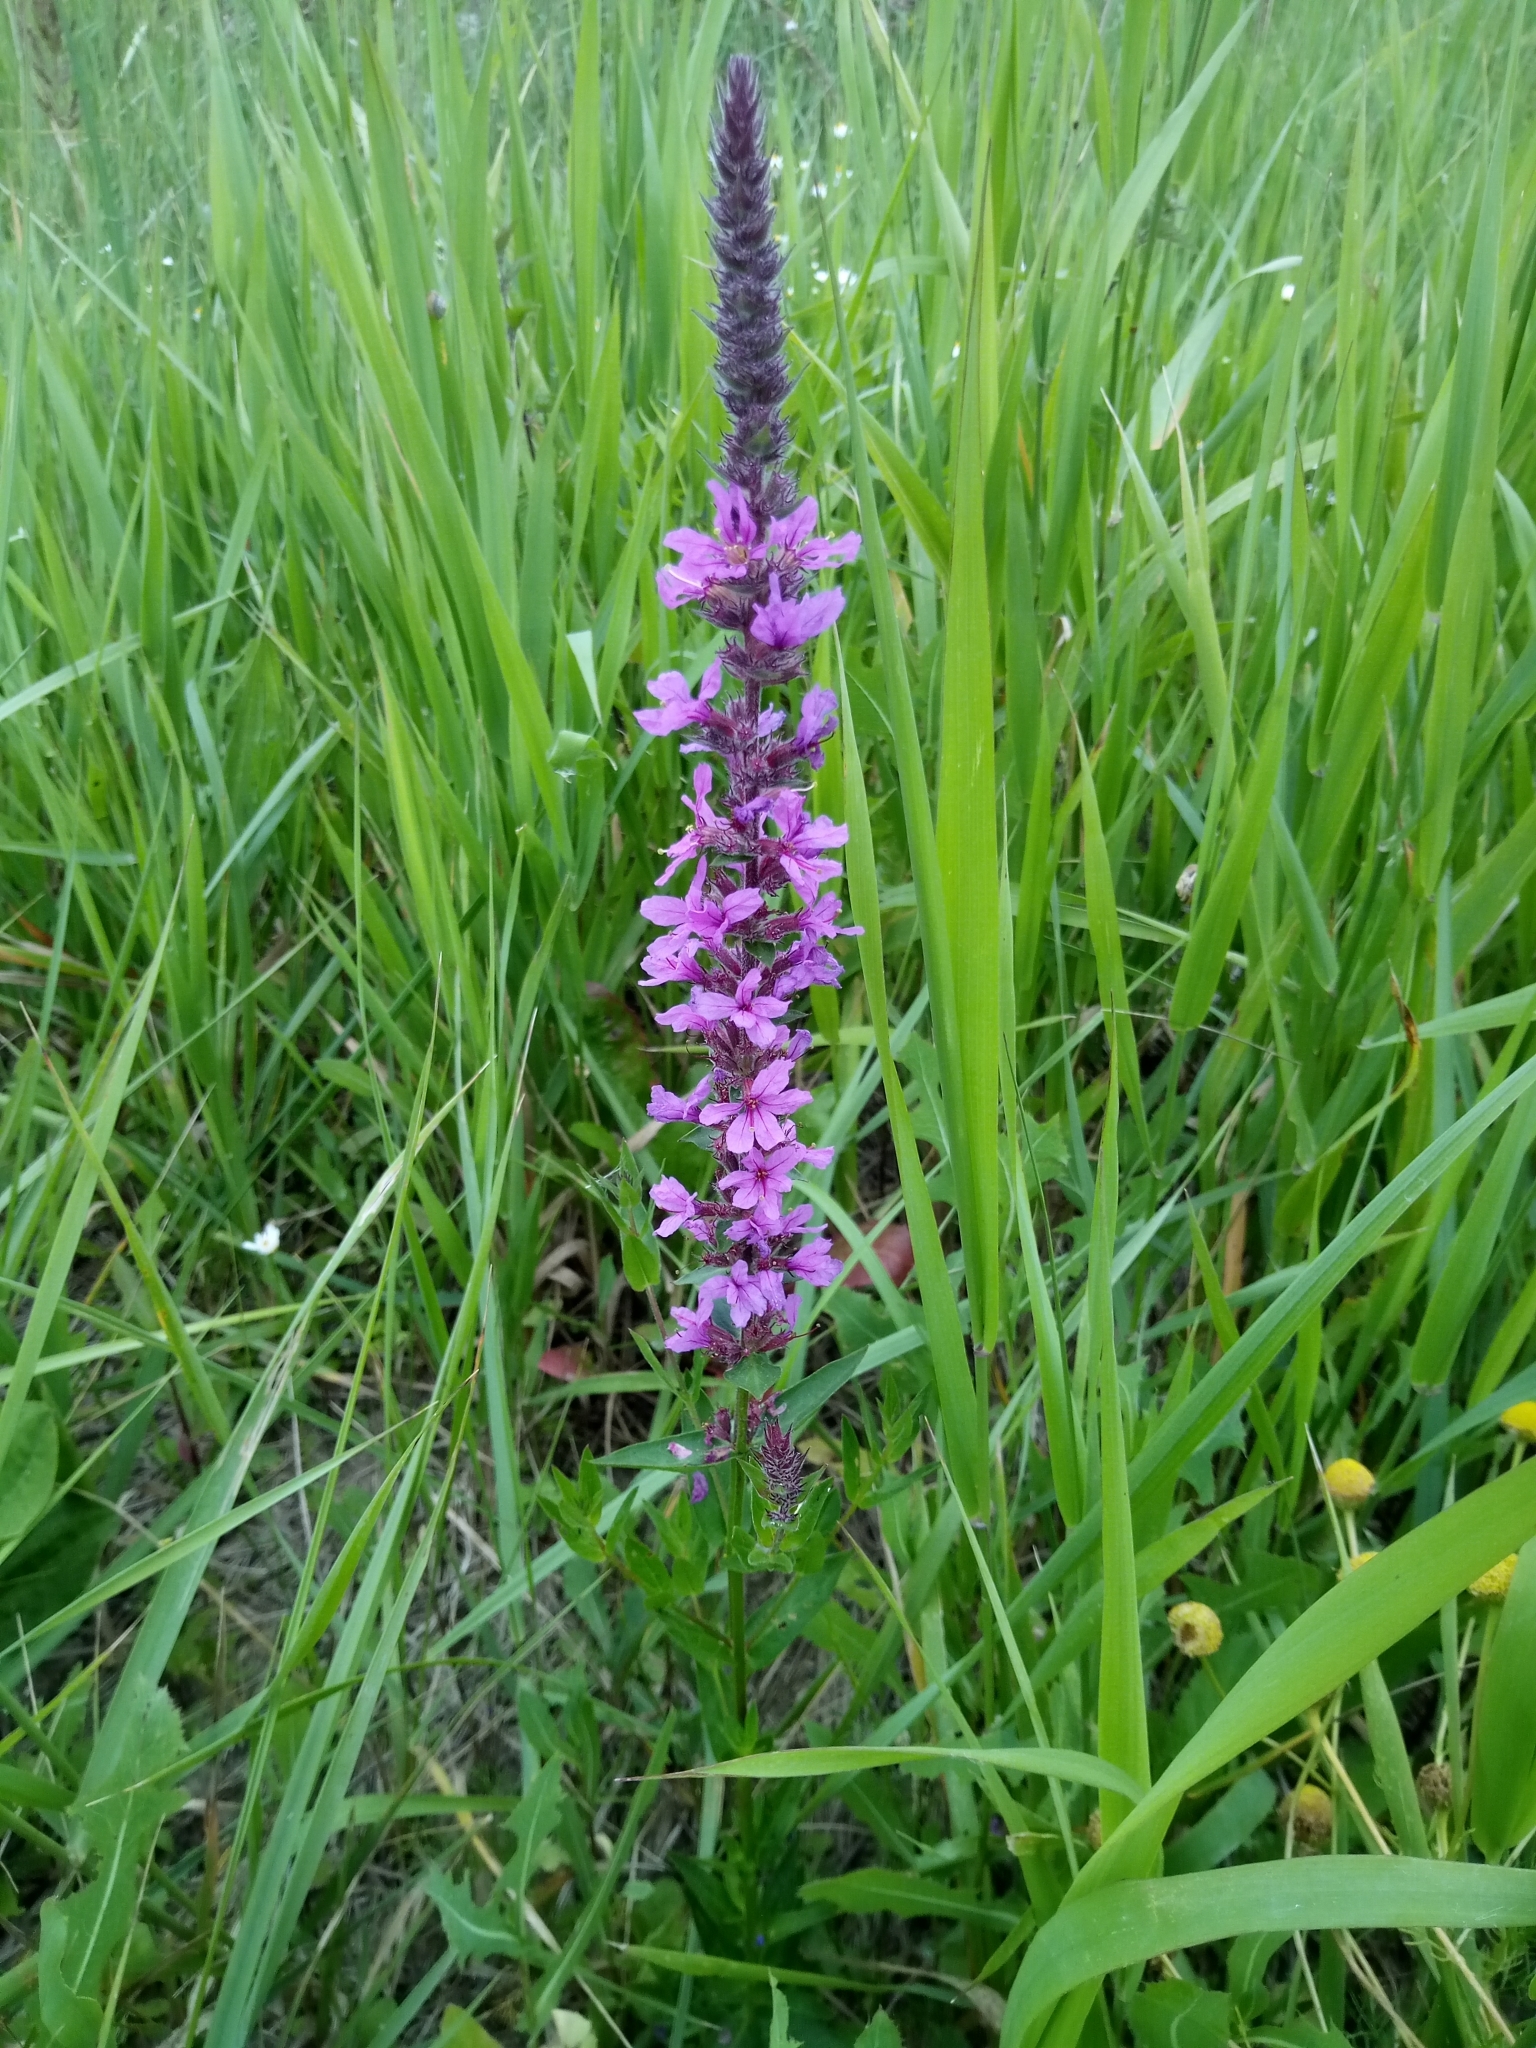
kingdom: Plantae
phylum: Tracheophyta
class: Magnoliopsida
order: Myrtales
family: Lythraceae
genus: Lythrum
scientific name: Lythrum salicaria
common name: Purple loosestrife
